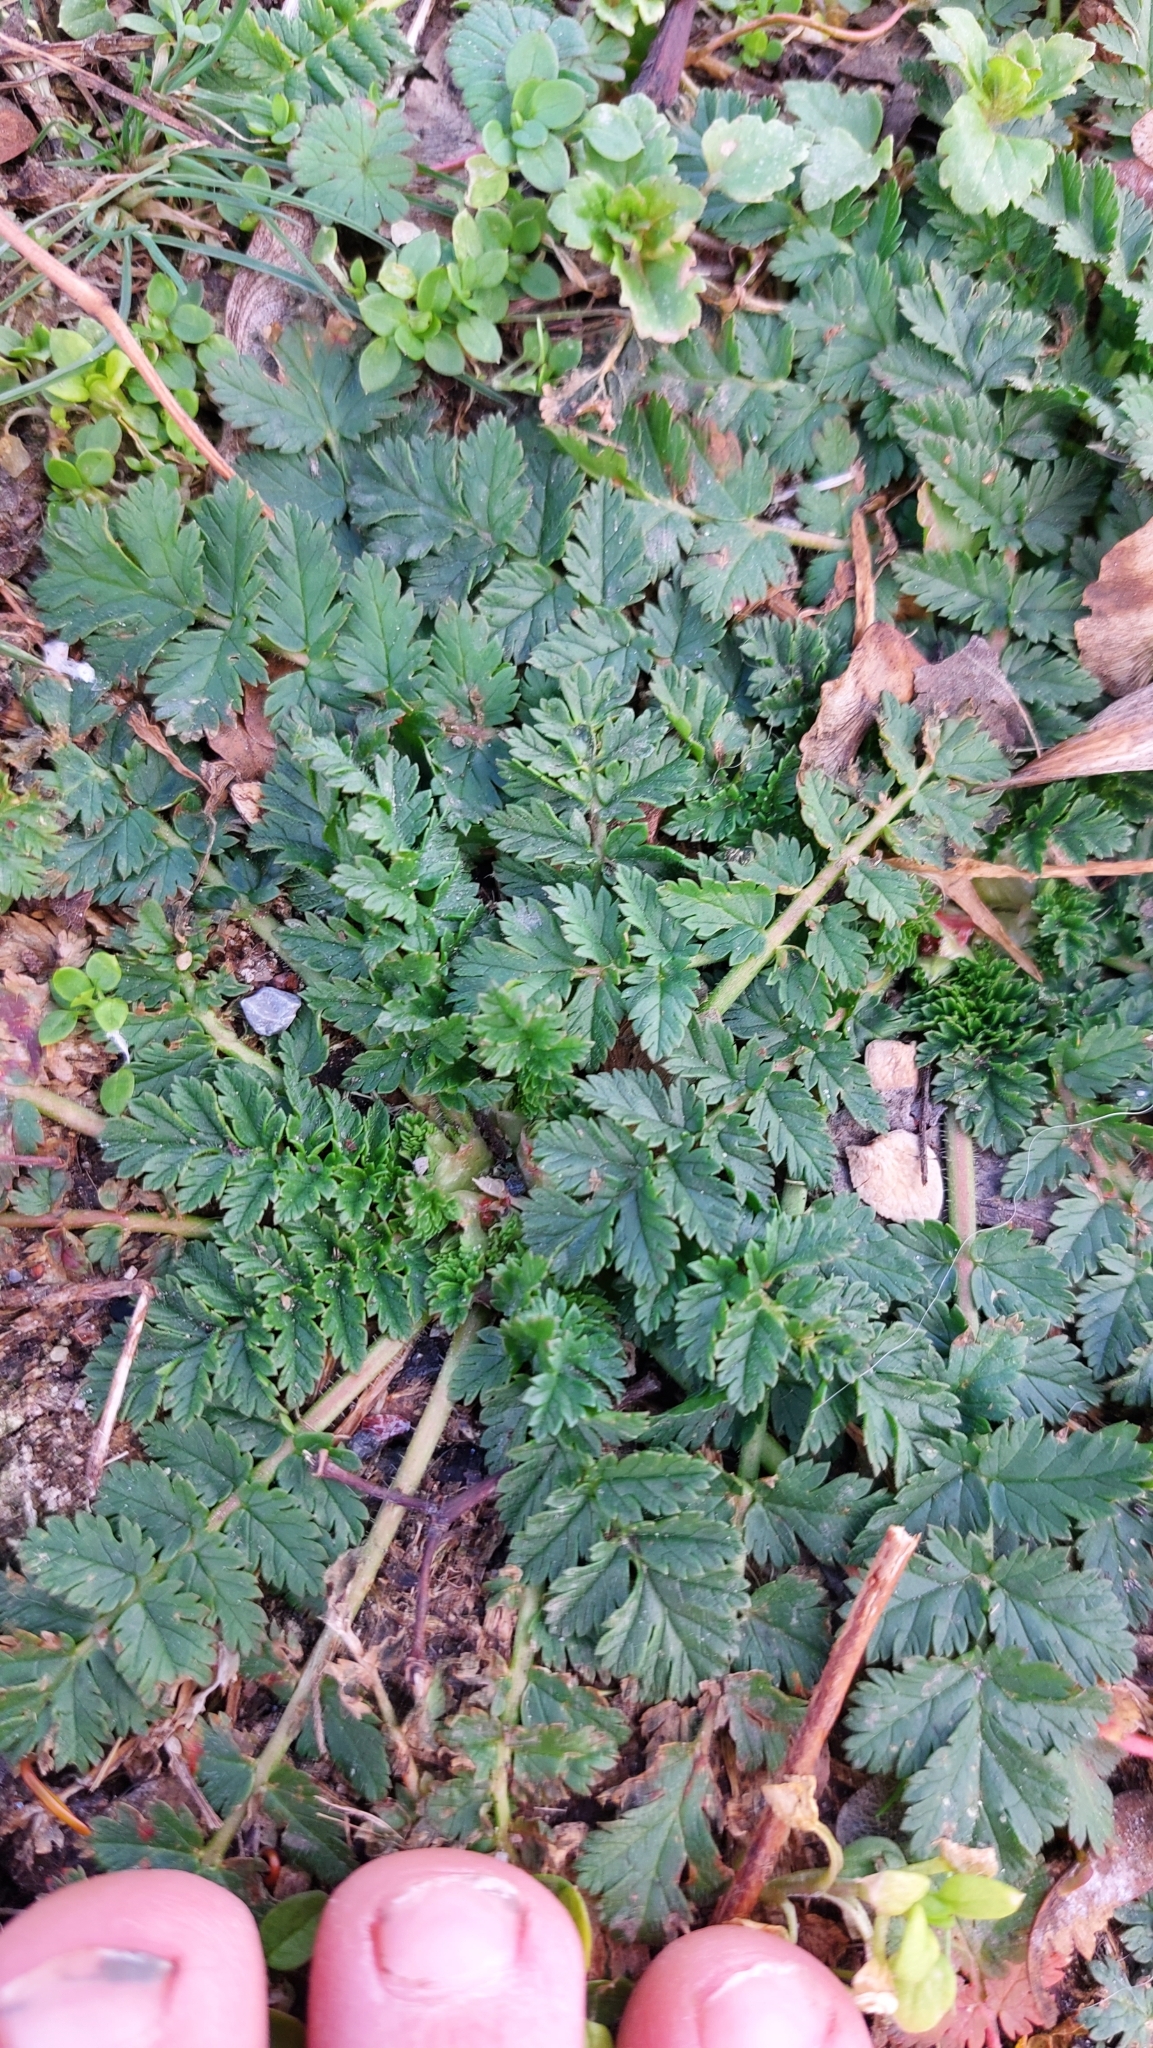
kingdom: Plantae
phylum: Tracheophyta
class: Magnoliopsida
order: Geraniales
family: Geraniaceae
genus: Erodium
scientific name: Erodium cicutarium
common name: Common stork's-bill
